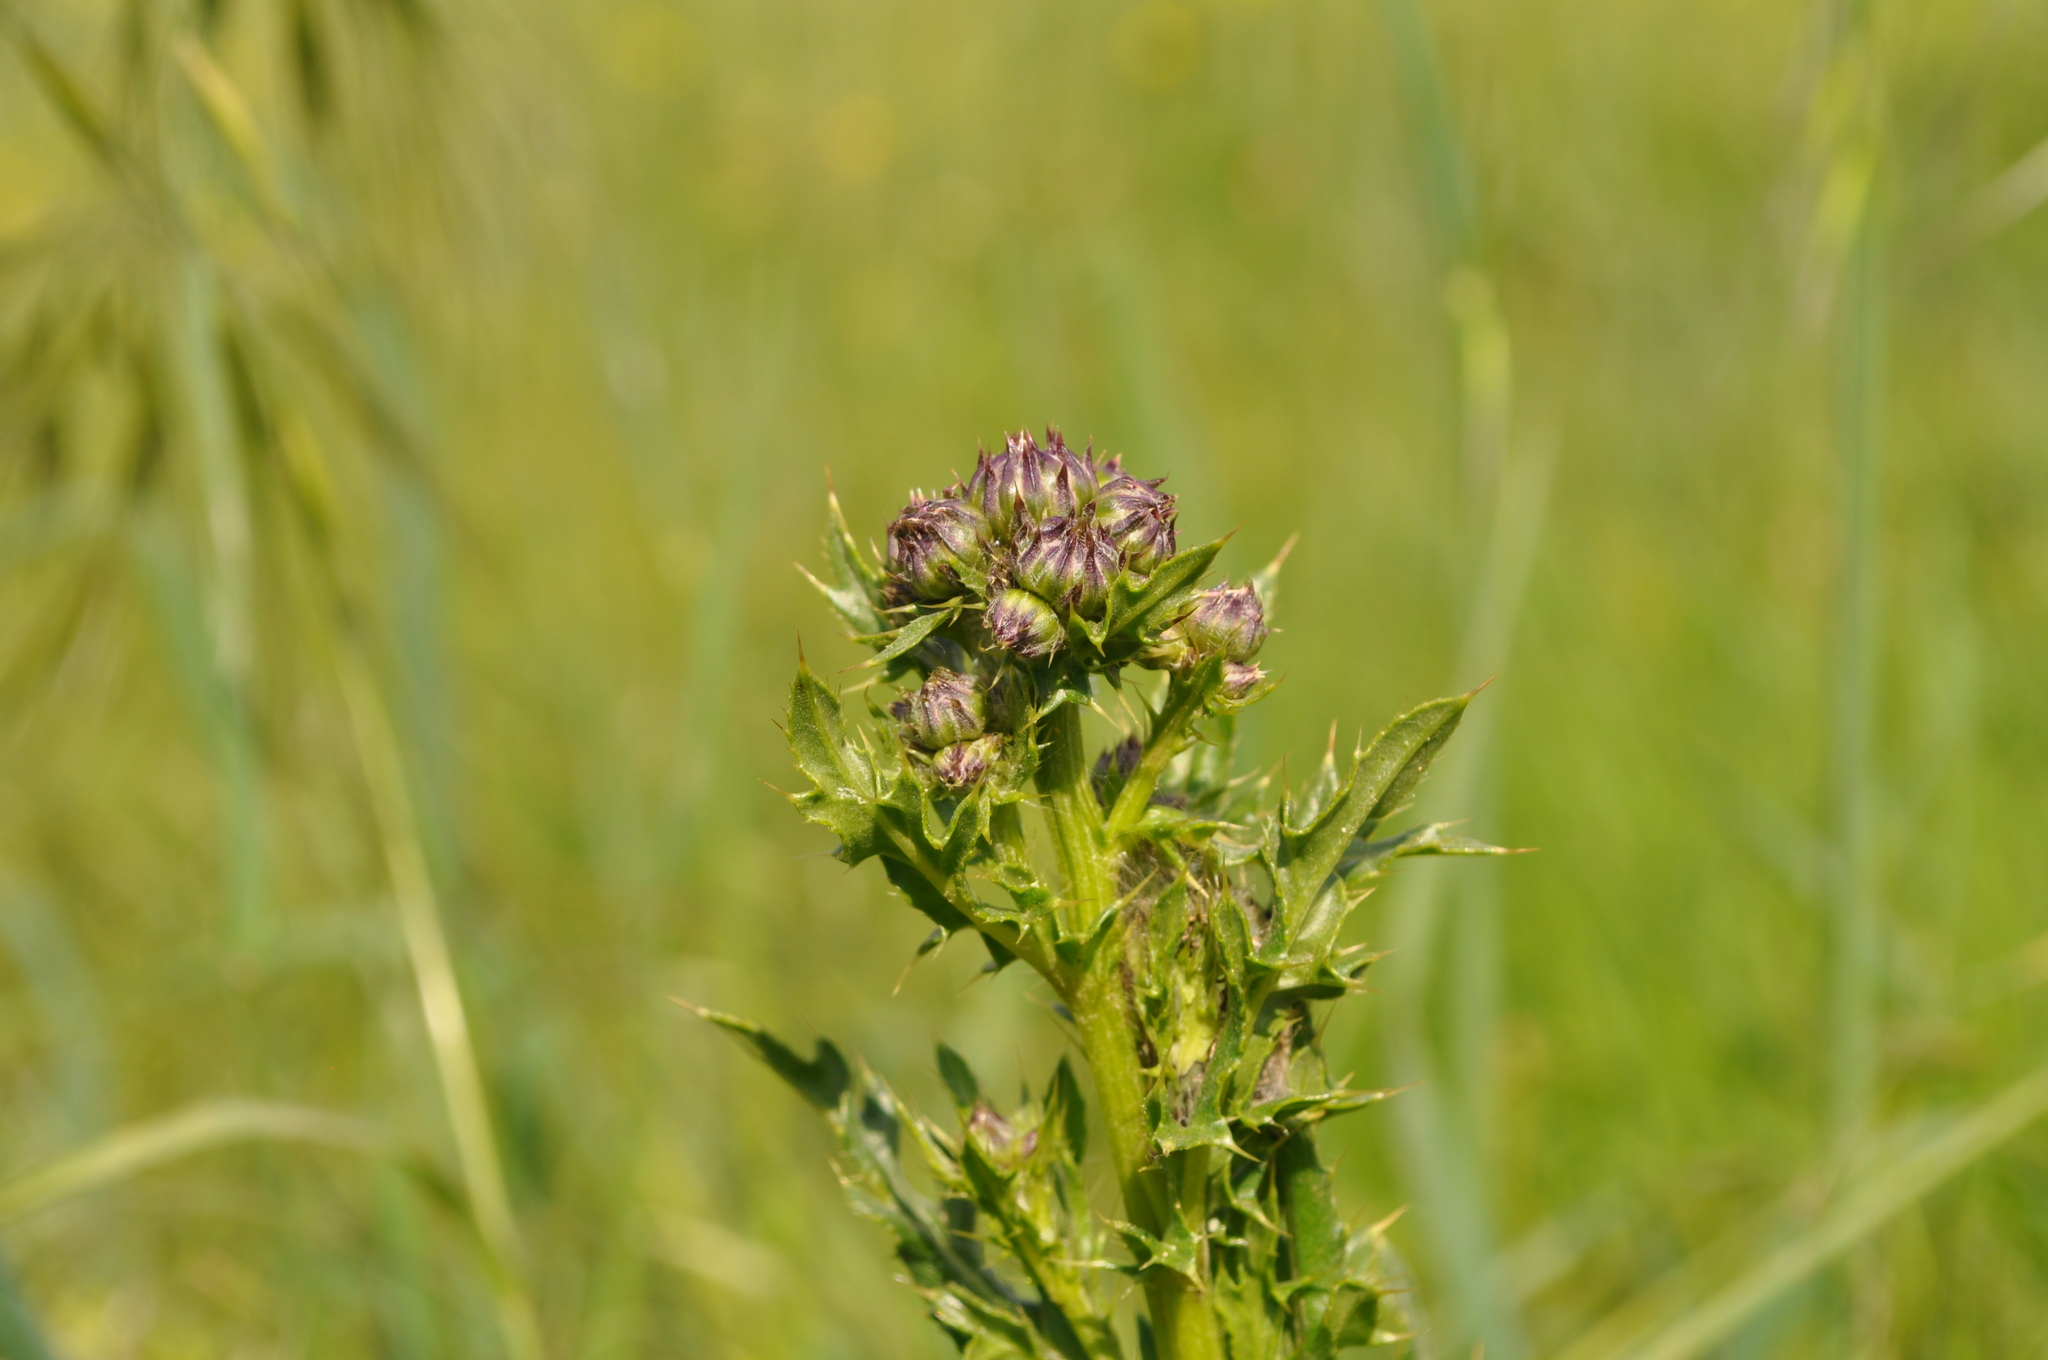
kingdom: Plantae
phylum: Tracheophyta
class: Magnoliopsida
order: Asterales
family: Asteraceae
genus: Cirsium
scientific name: Cirsium arvense
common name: Creeping thistle
